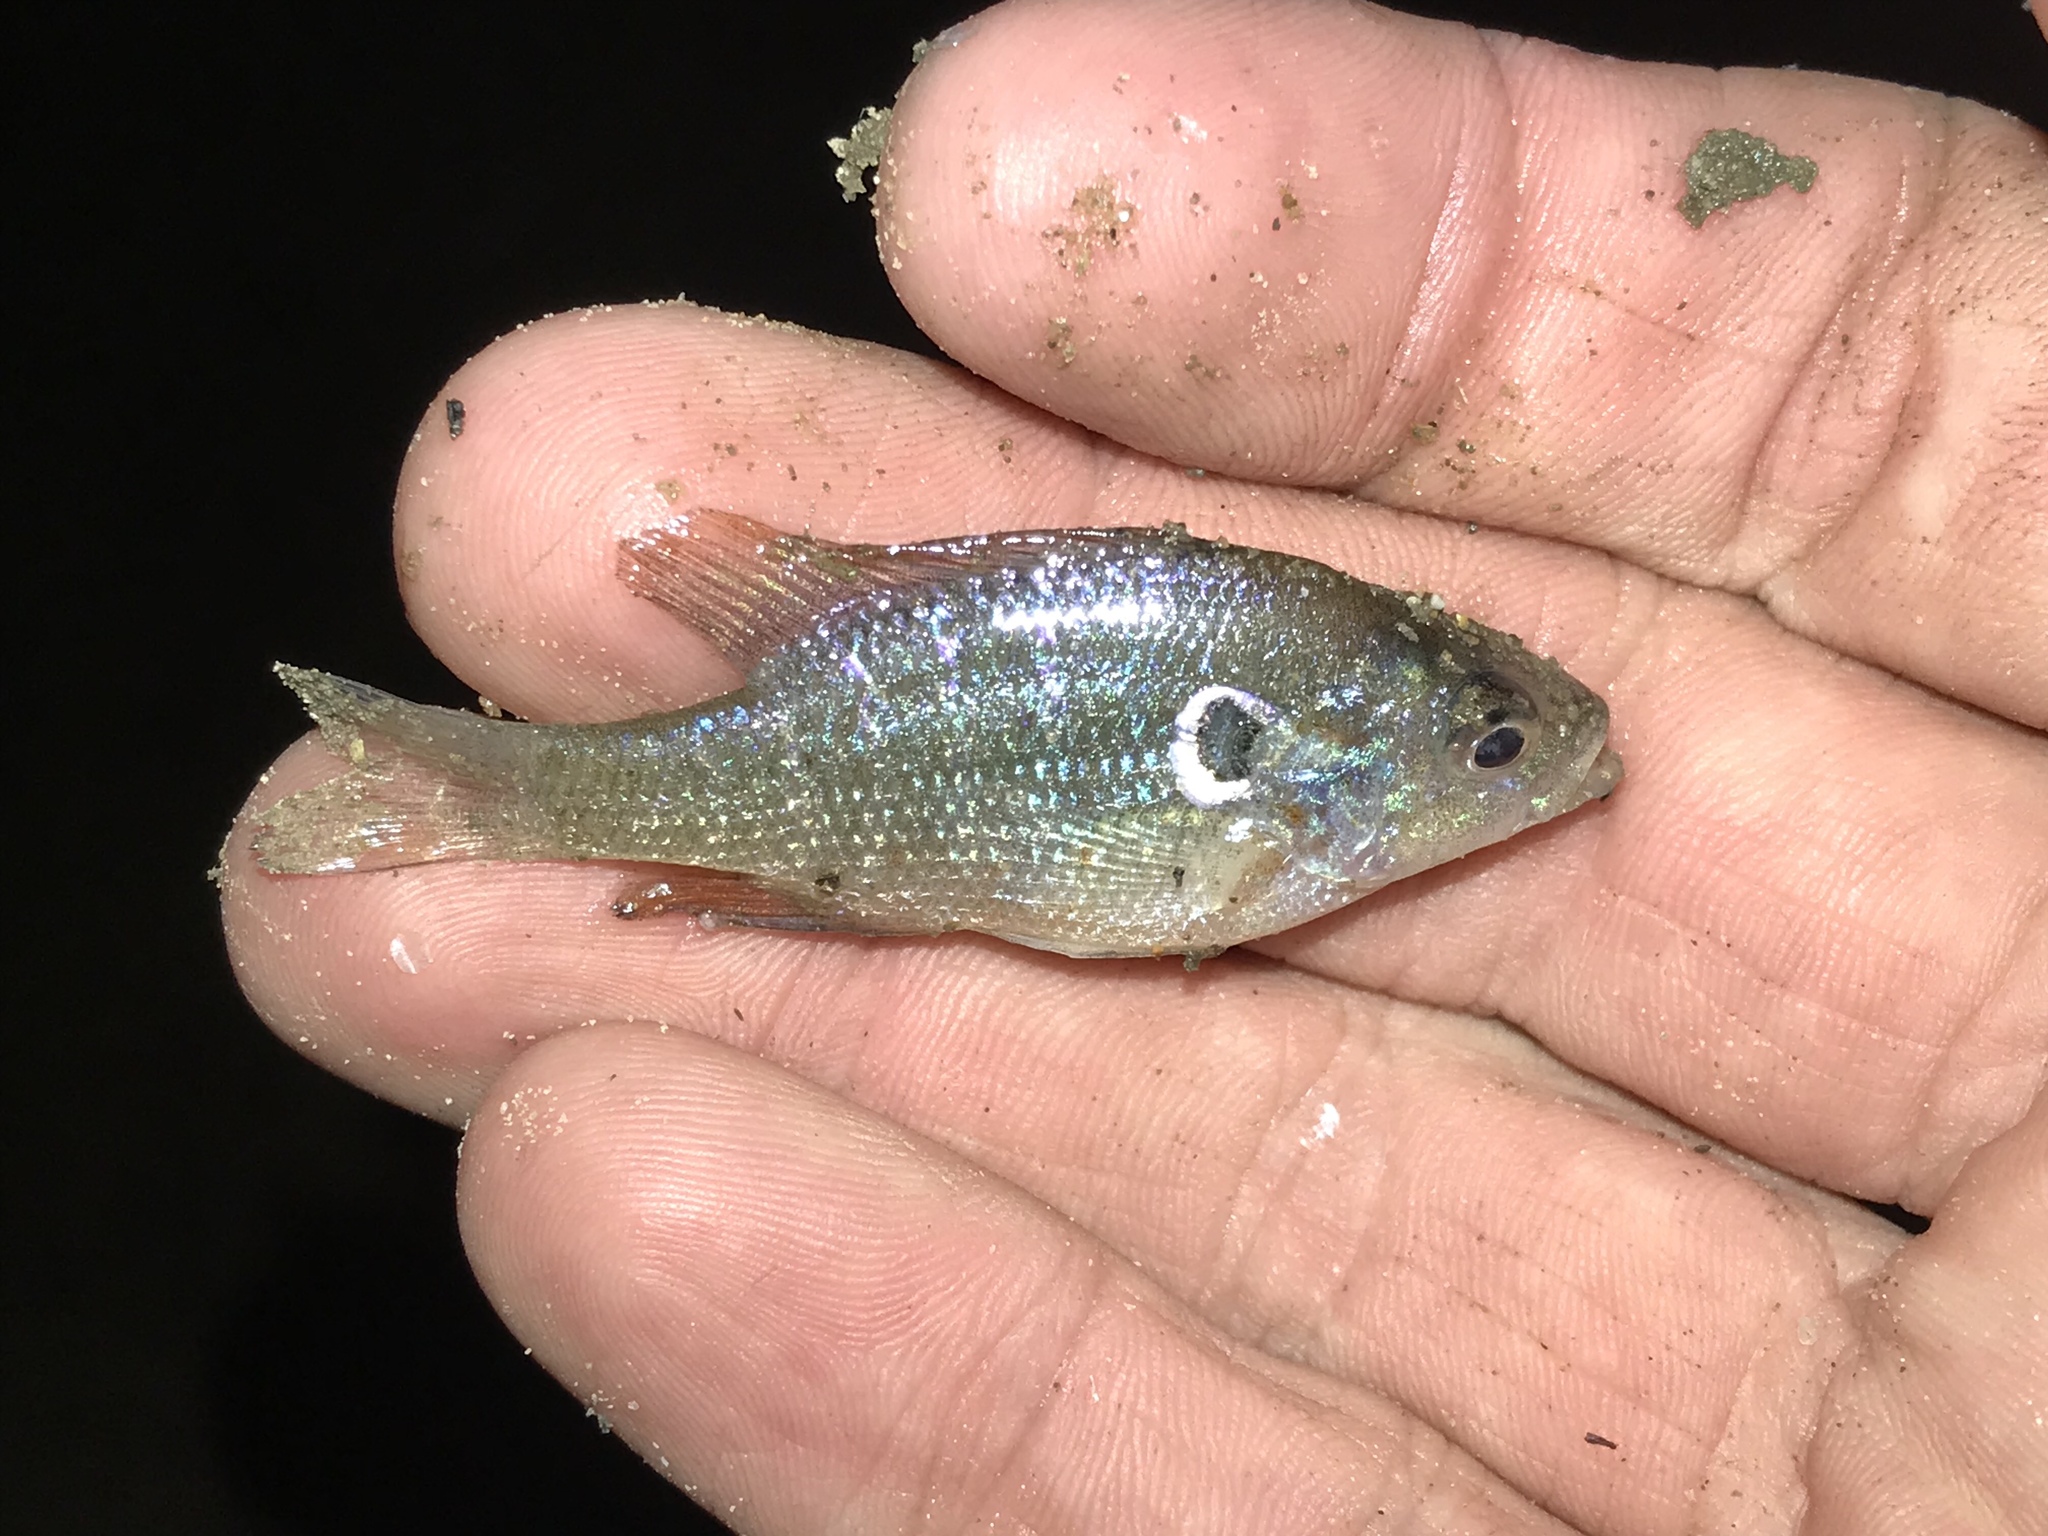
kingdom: Animalia
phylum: Chordata
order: Perciformes
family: Centrarchidae
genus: Lepomis
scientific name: Lepomis humilis
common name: Orangespotted sunfish
